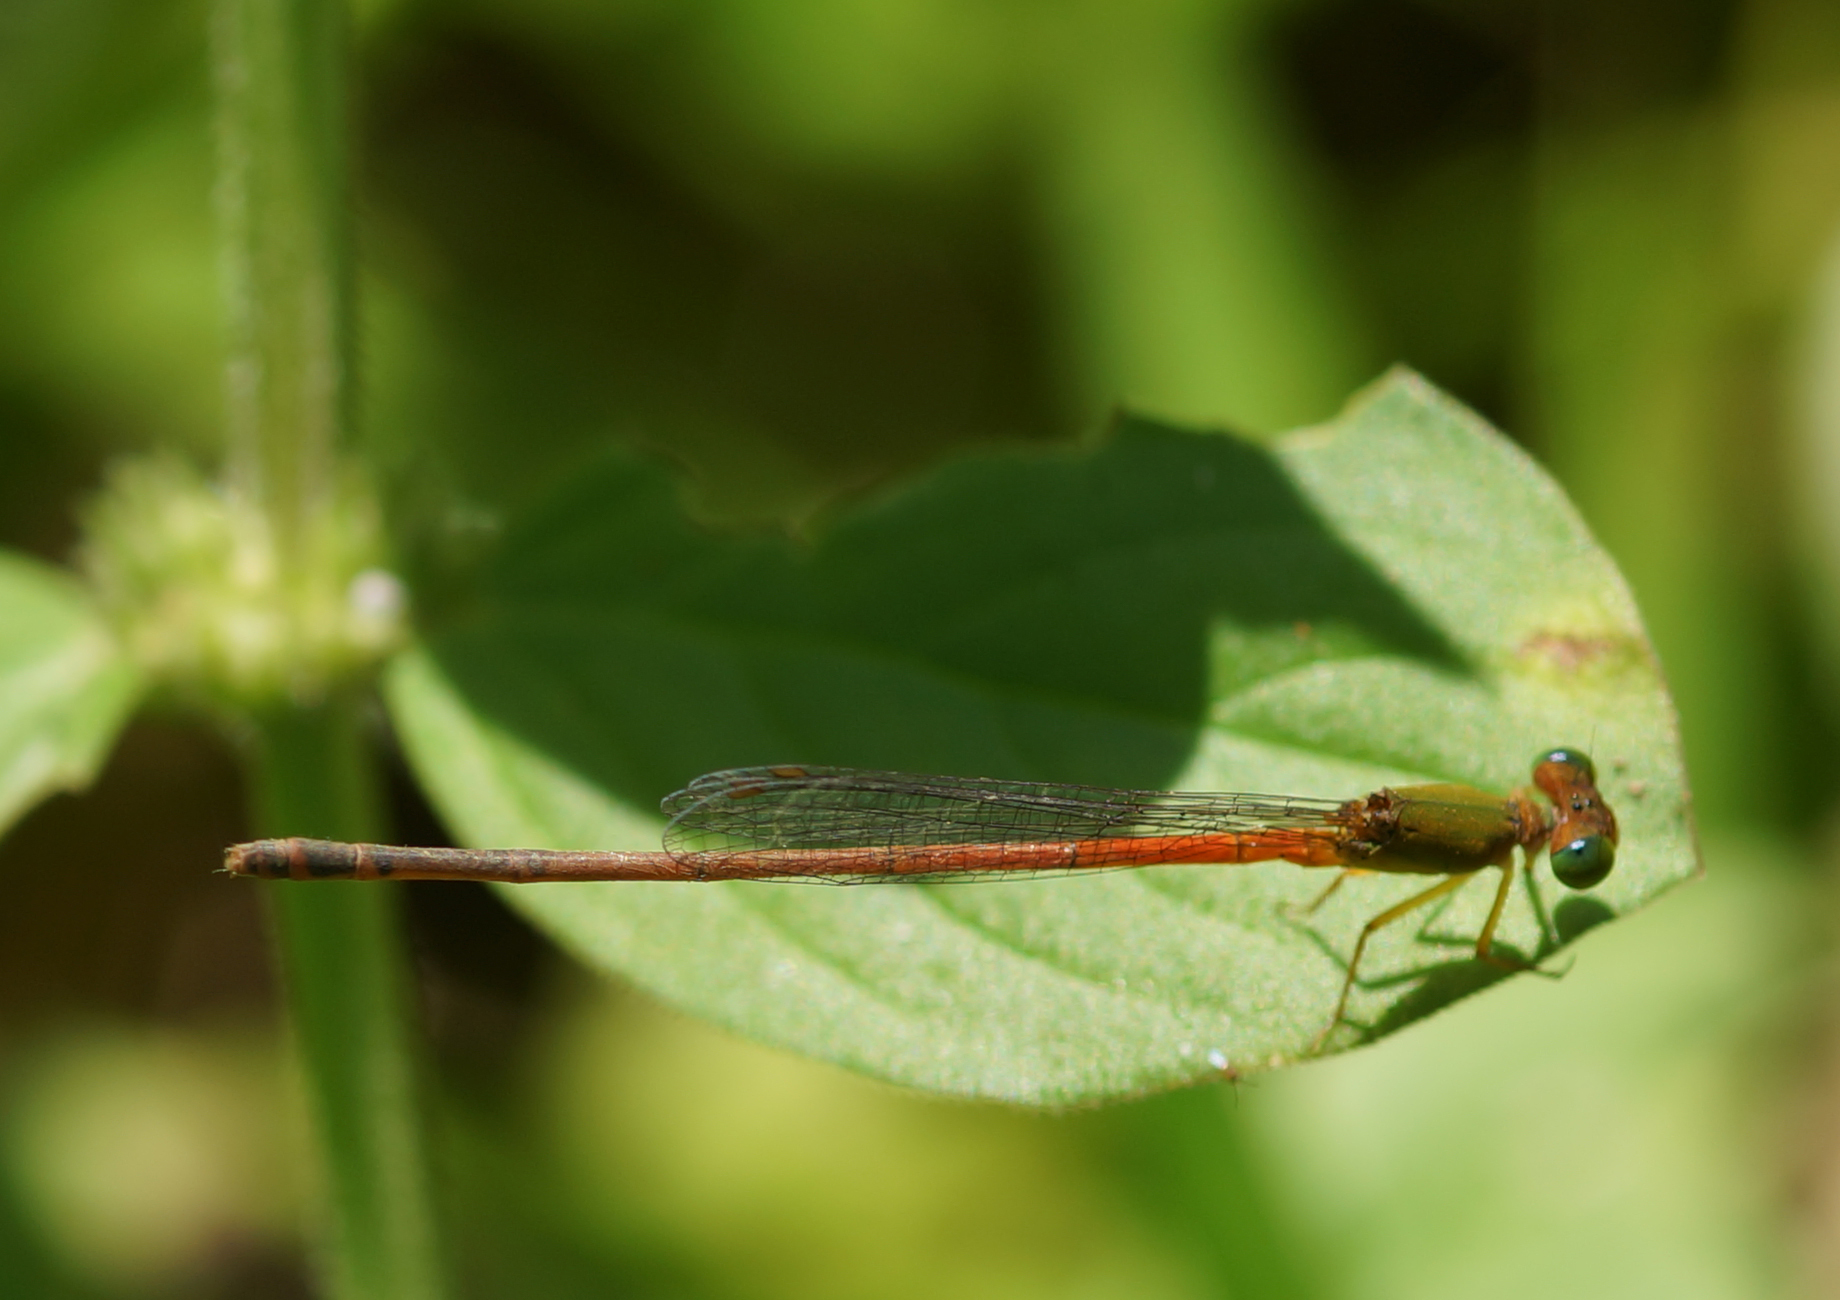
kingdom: Animalia
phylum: Arthropoda
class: Insecta
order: Odonata
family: Coenagrionidae
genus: Ceriagrion
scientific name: Ceriagrion cerinorubellum
